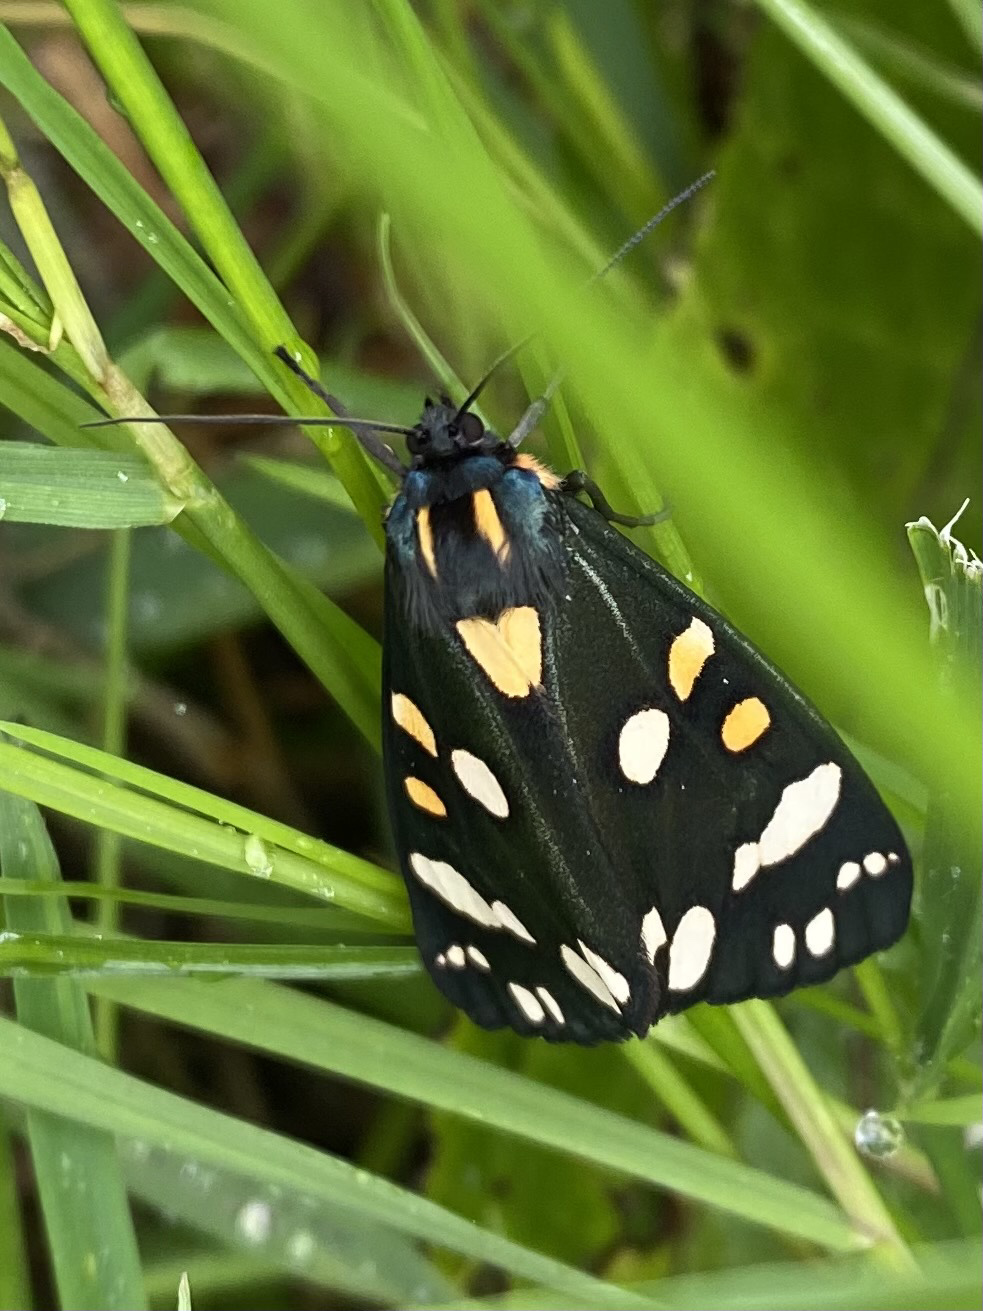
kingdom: Animalia
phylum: Arthropoda
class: Insecta
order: Lepidoptera
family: Erebidae
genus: Callimorpha
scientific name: Callimorpha dominula
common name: Scarlet tiger
